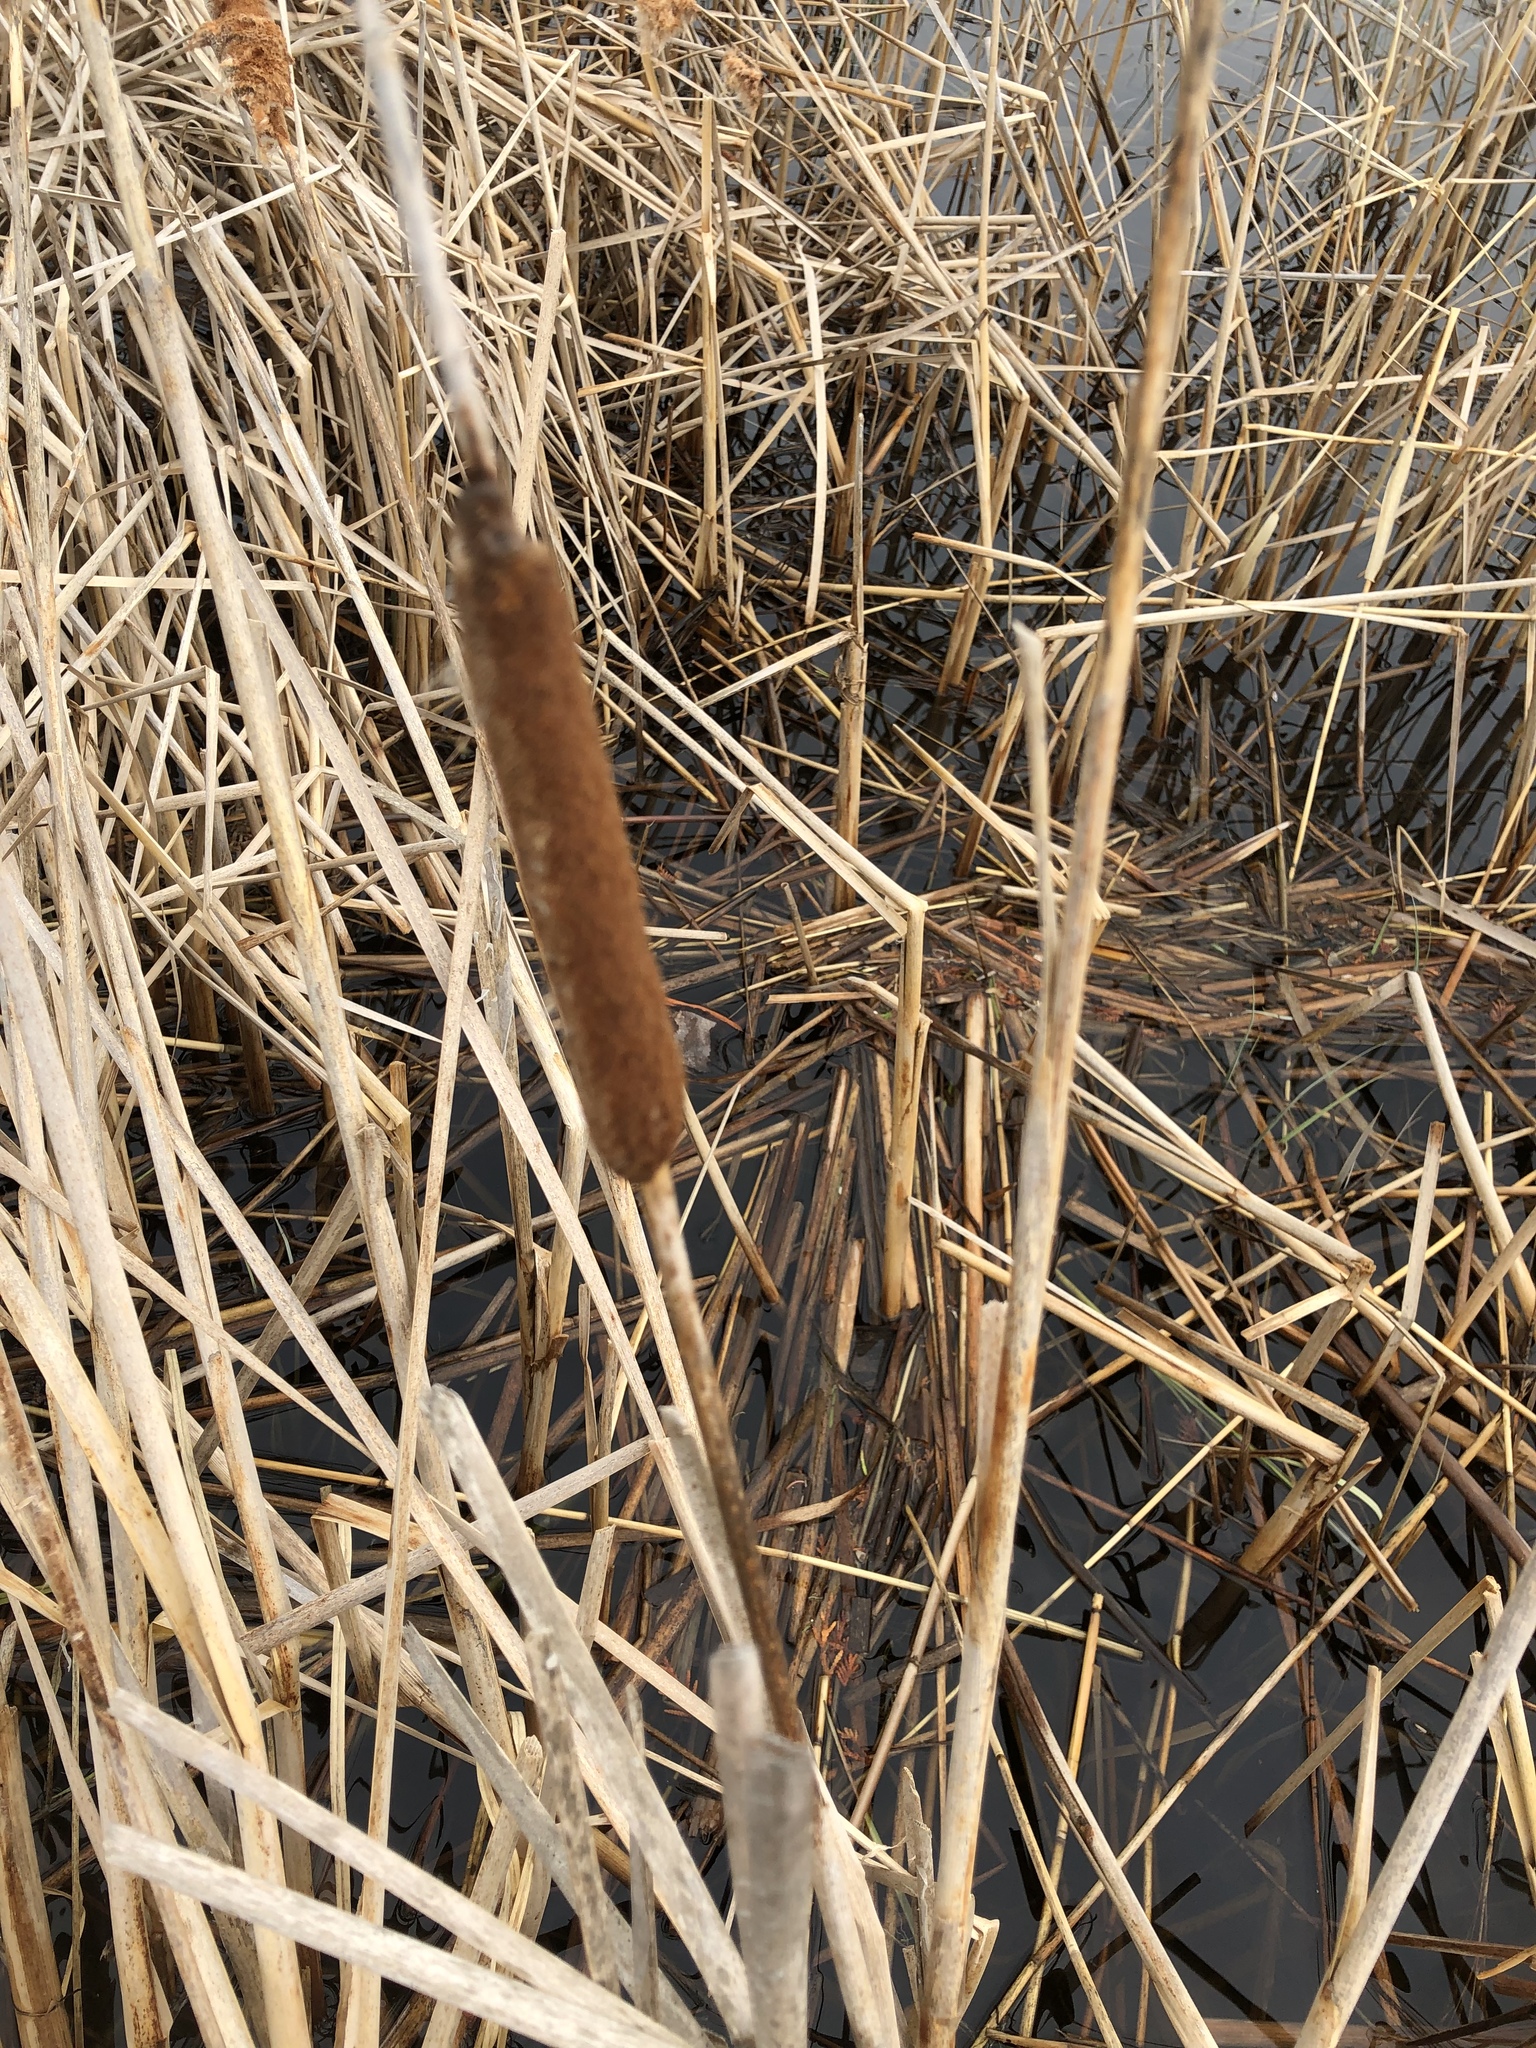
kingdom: Plantae
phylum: Tracheophyta
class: Liliopsida
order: Poales
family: Typhaceae
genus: Typha
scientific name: Typha angustifolia
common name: Lesser bulrush
